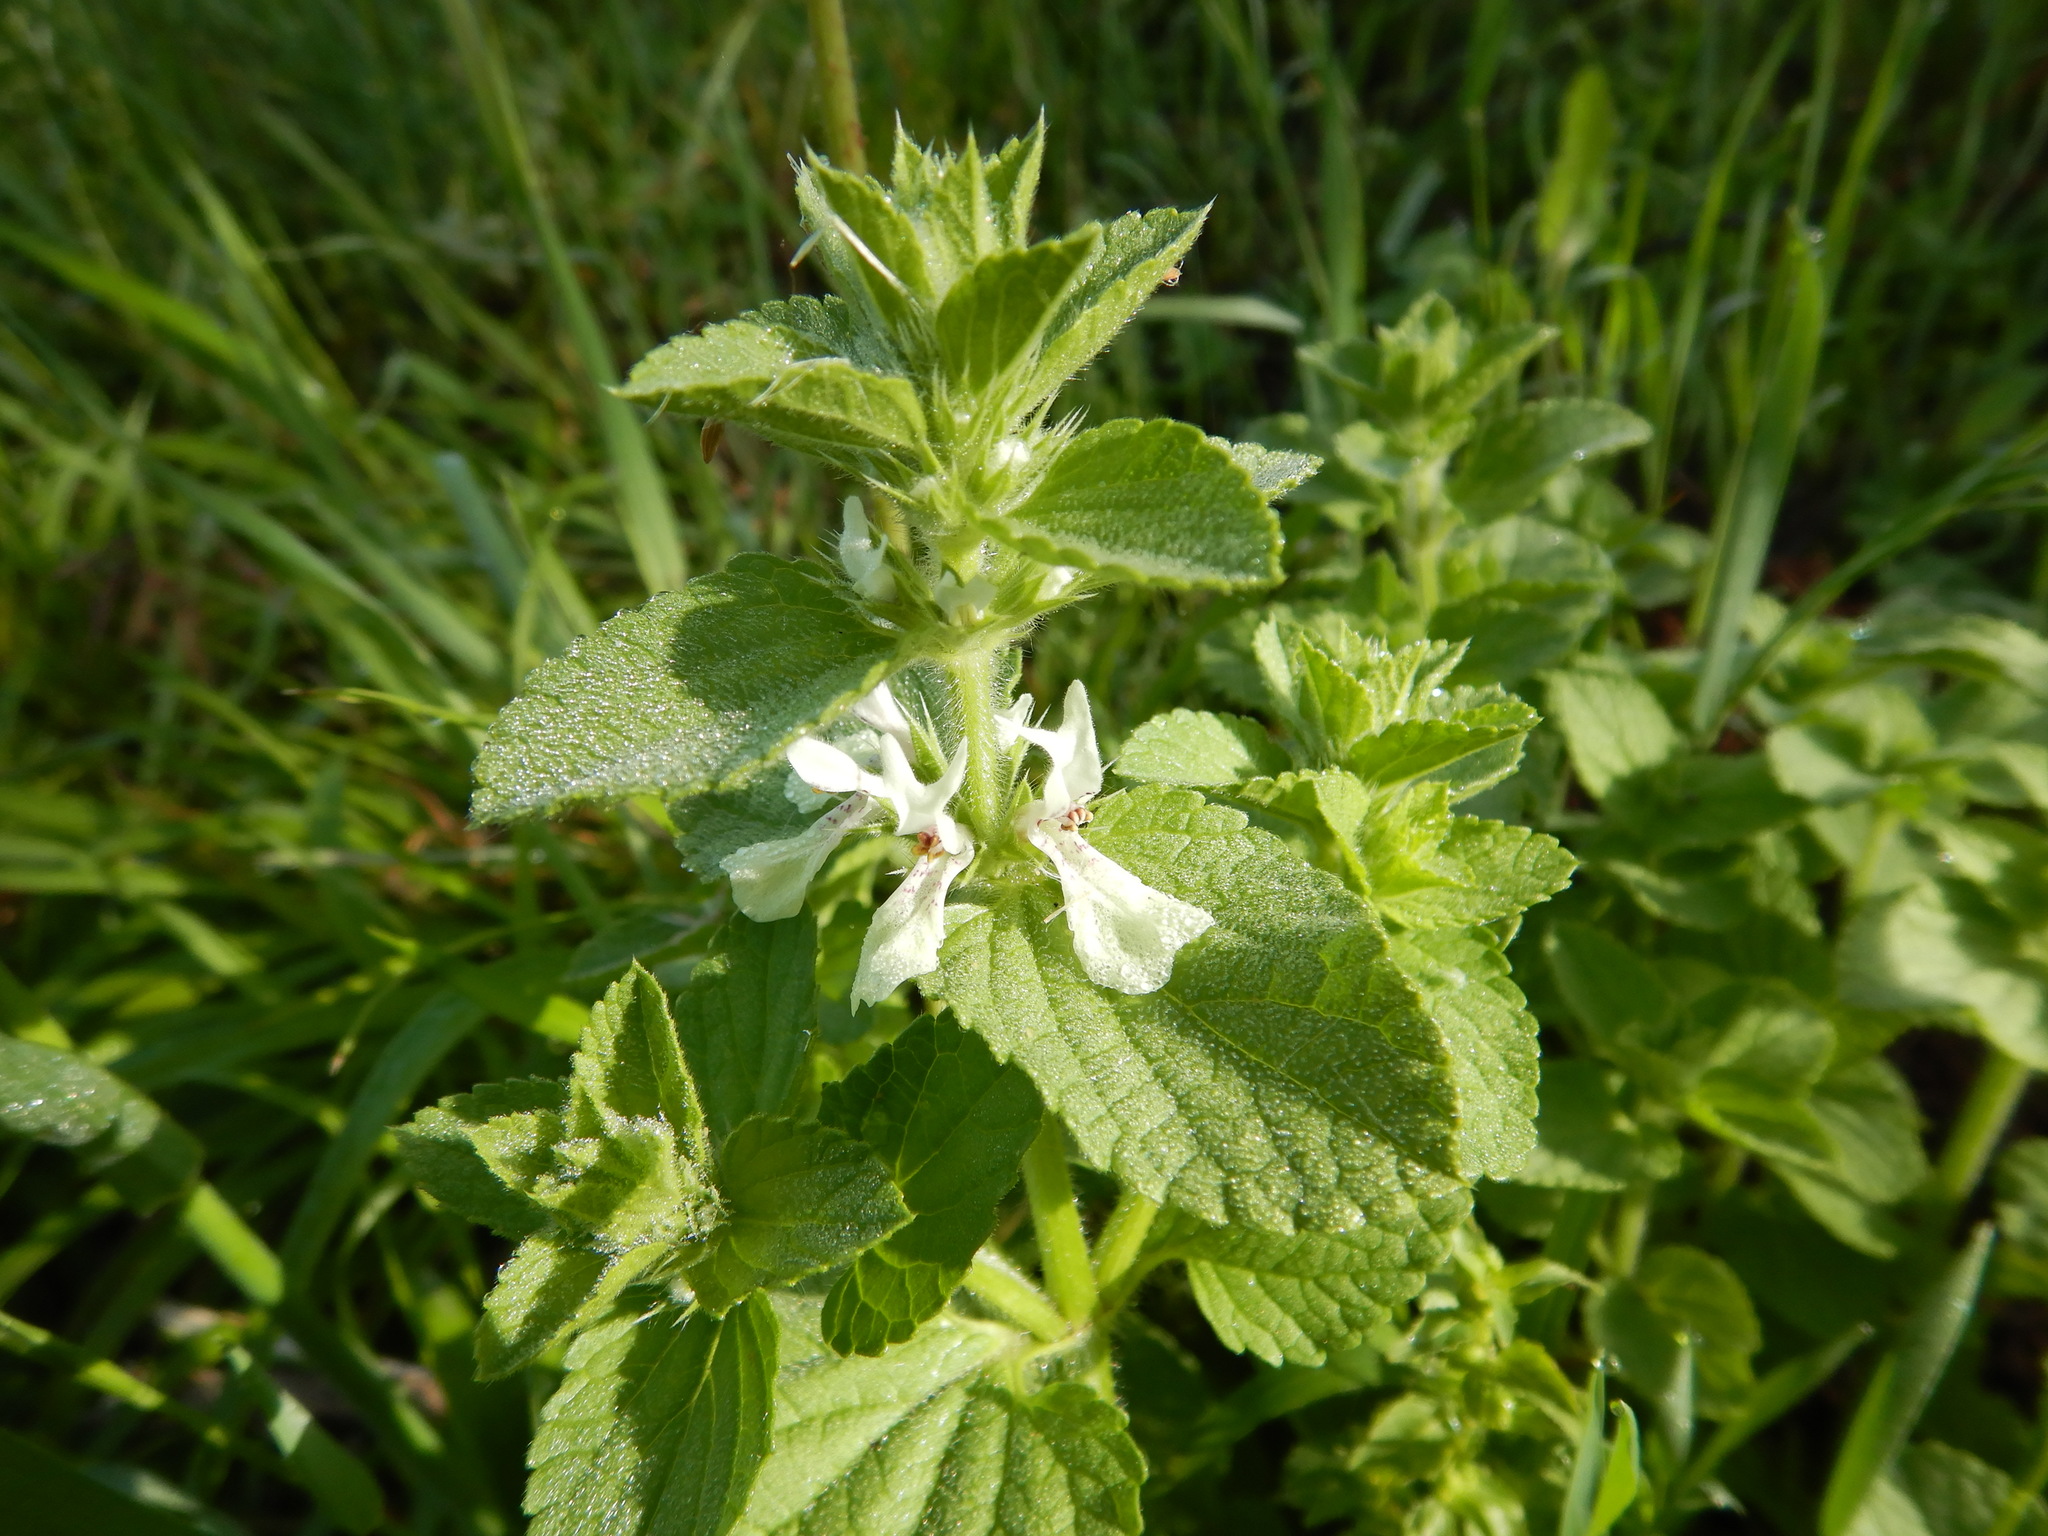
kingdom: Plantae
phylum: Tracheophyta
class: Magnoliopsida
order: Lamiales
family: Lamiaceae
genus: Stachys
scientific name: Stachys ocymastrum
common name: Italian hedgenettle
